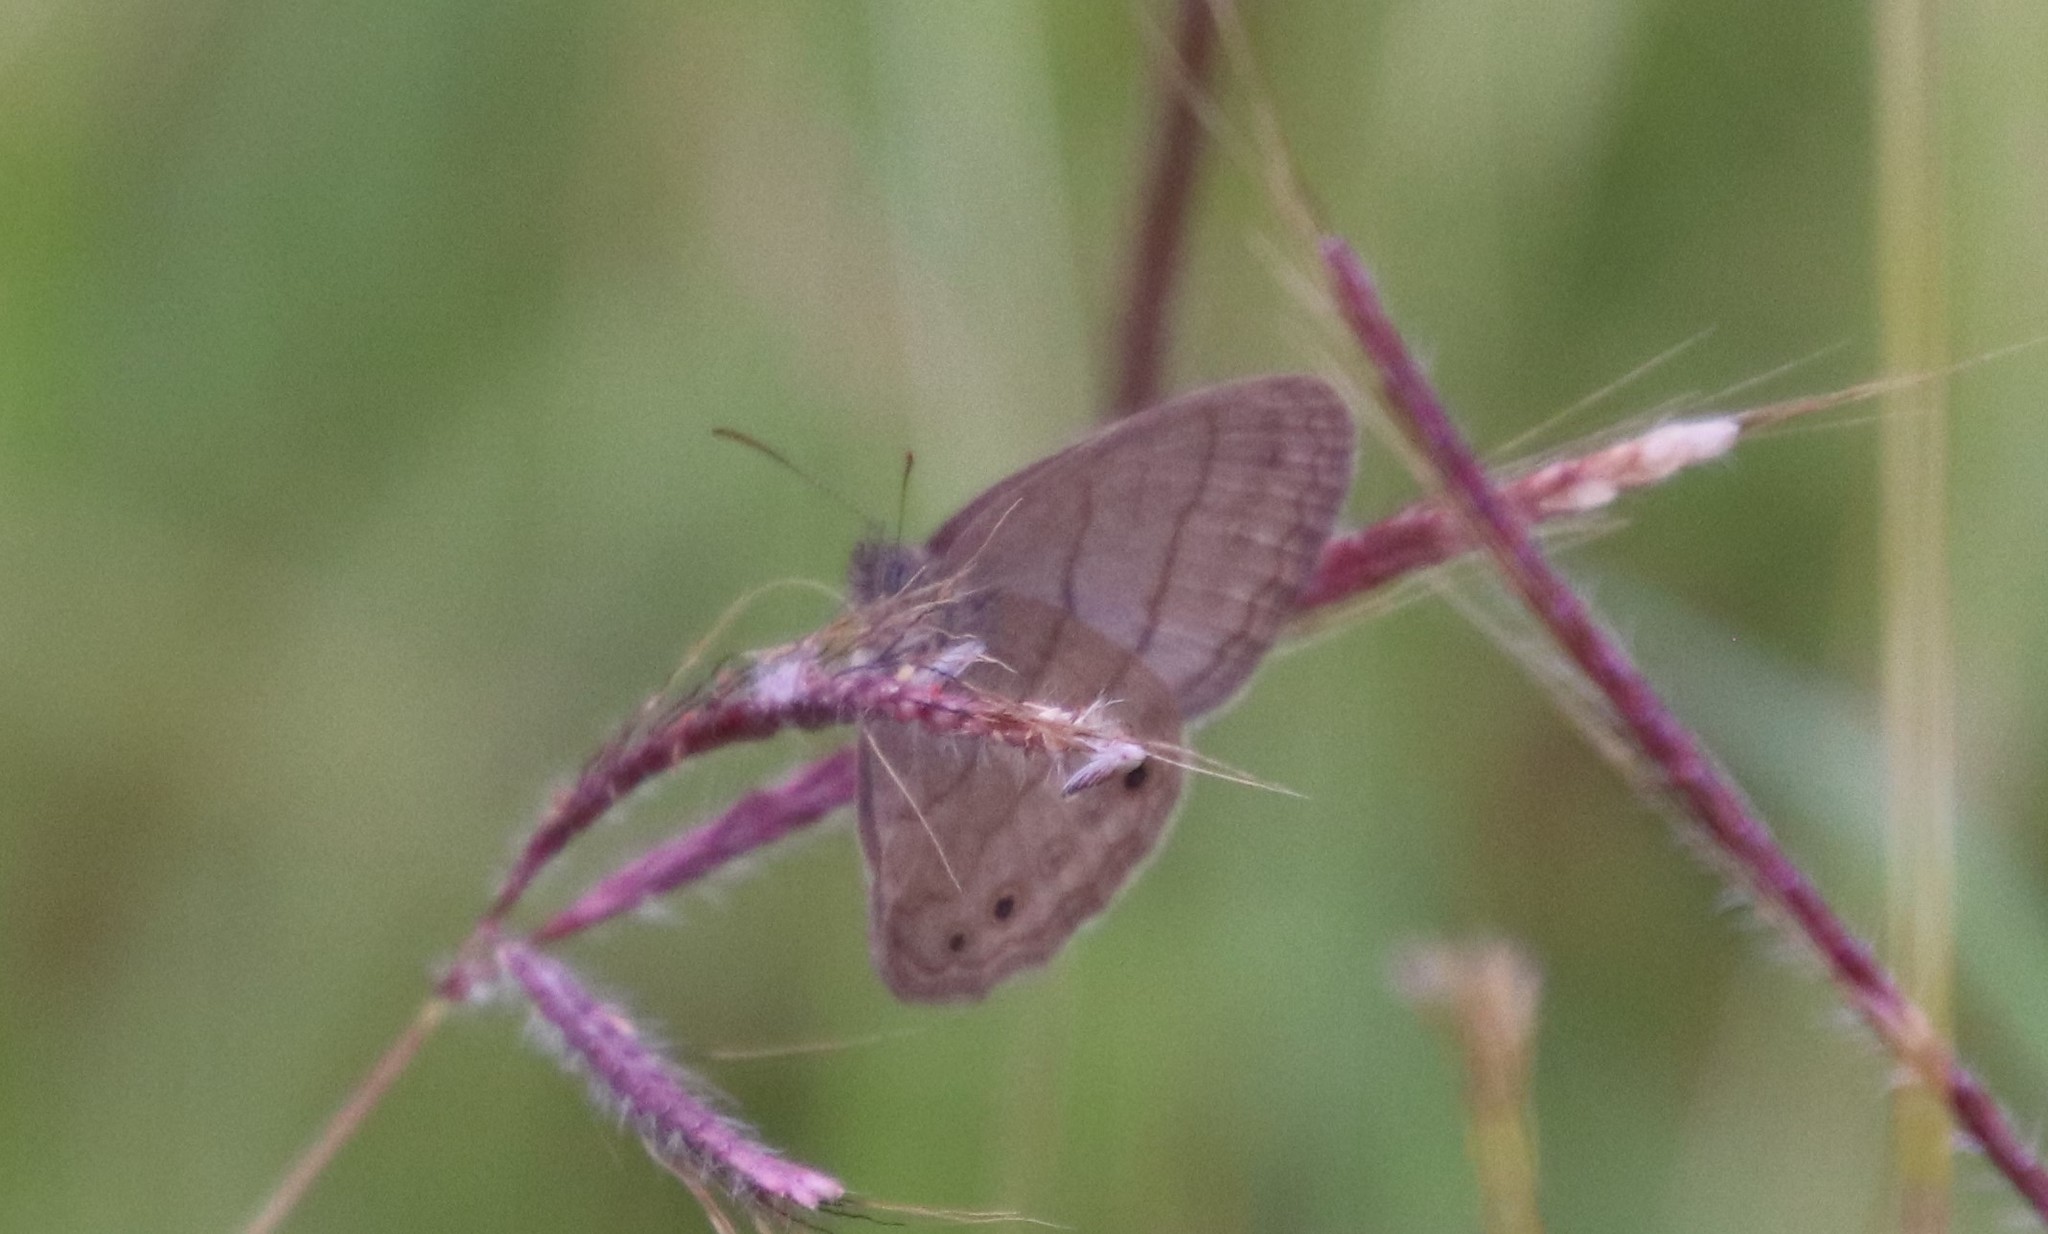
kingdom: Animalia
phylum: Arthropoda
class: Insecta
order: Lepidoptera
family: Nymphalidae
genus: Hermeuptychia
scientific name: Hermeuptychia hermybius
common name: South texas satyr
